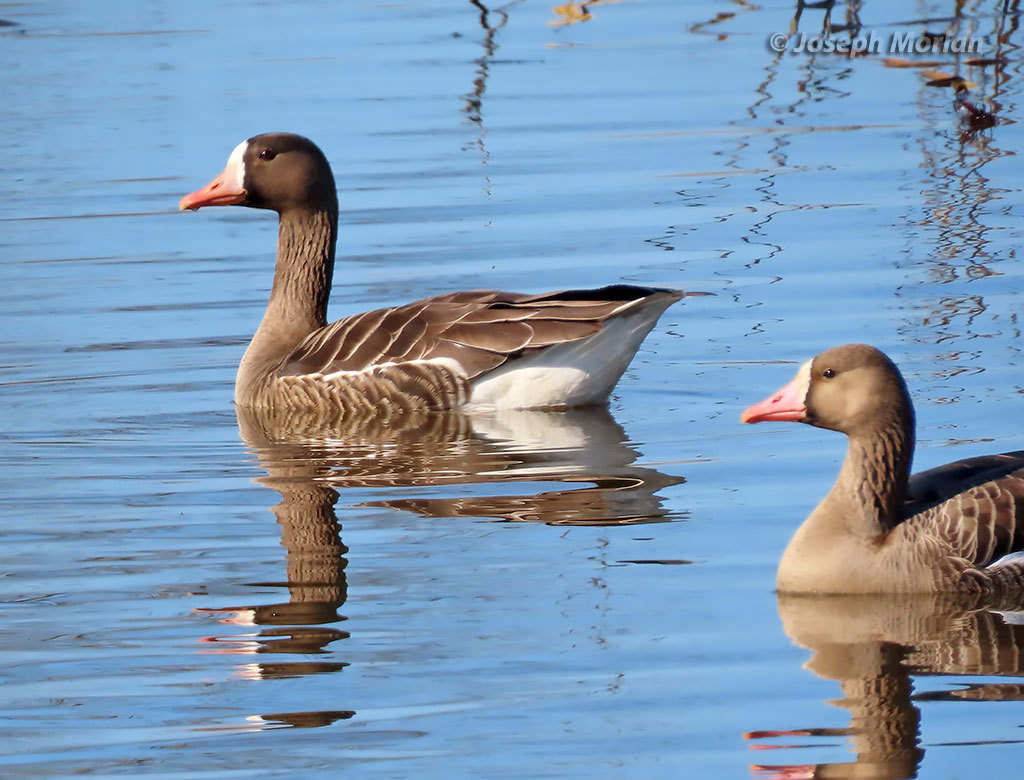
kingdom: Animalia
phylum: Chordata
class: Aves
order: Anseriformes
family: Anatidae
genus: Anser
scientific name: Anser albifrons
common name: Greater white-fronted goose
